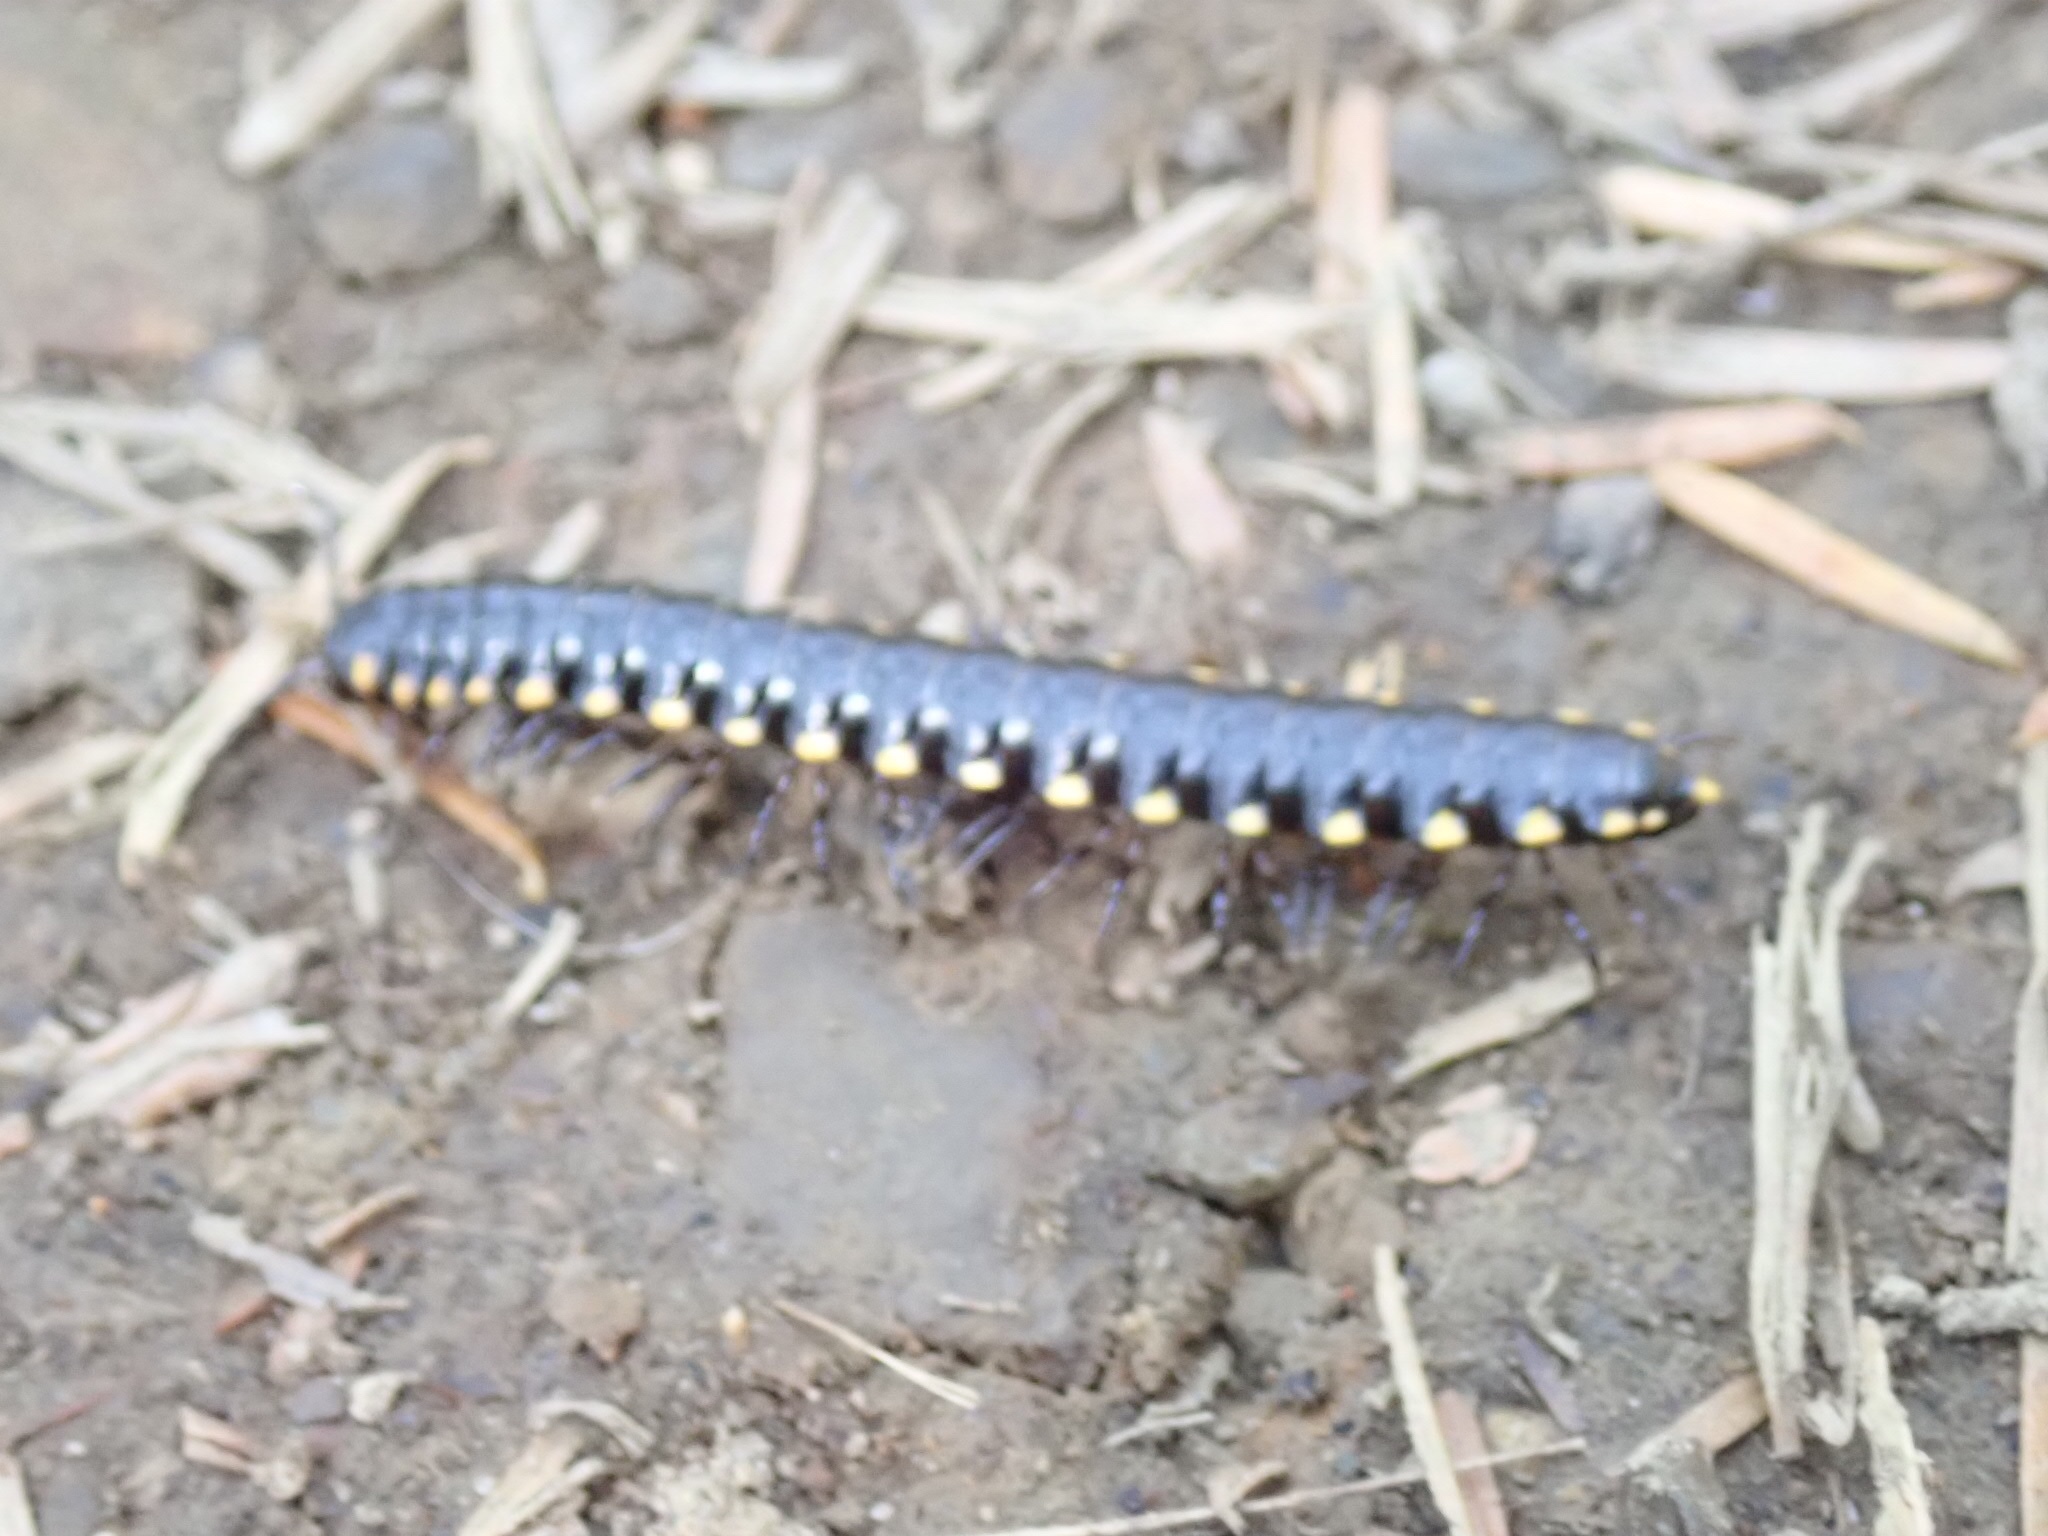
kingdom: Animalia
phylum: Arthropoda
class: Diplopoda
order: Polydesmida
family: Xystodesmidae
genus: Harpaphe
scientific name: Harpaphe haydeniana
